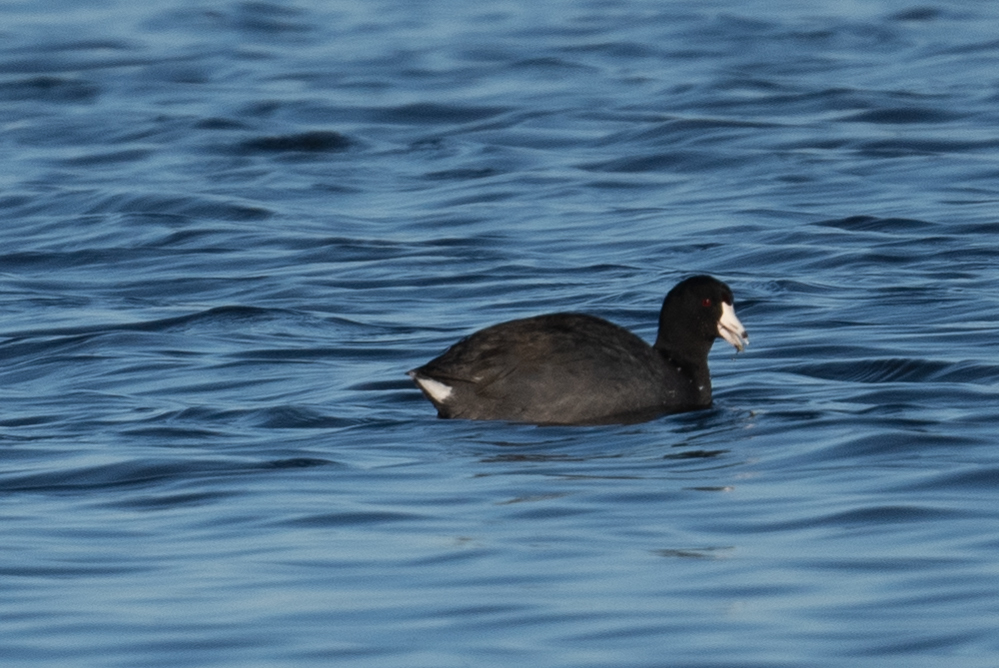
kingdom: Animalia
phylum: Chordata
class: Aves
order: Gruiformes
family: Rallidae
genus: Fulica
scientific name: Fulica americana
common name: American coot
